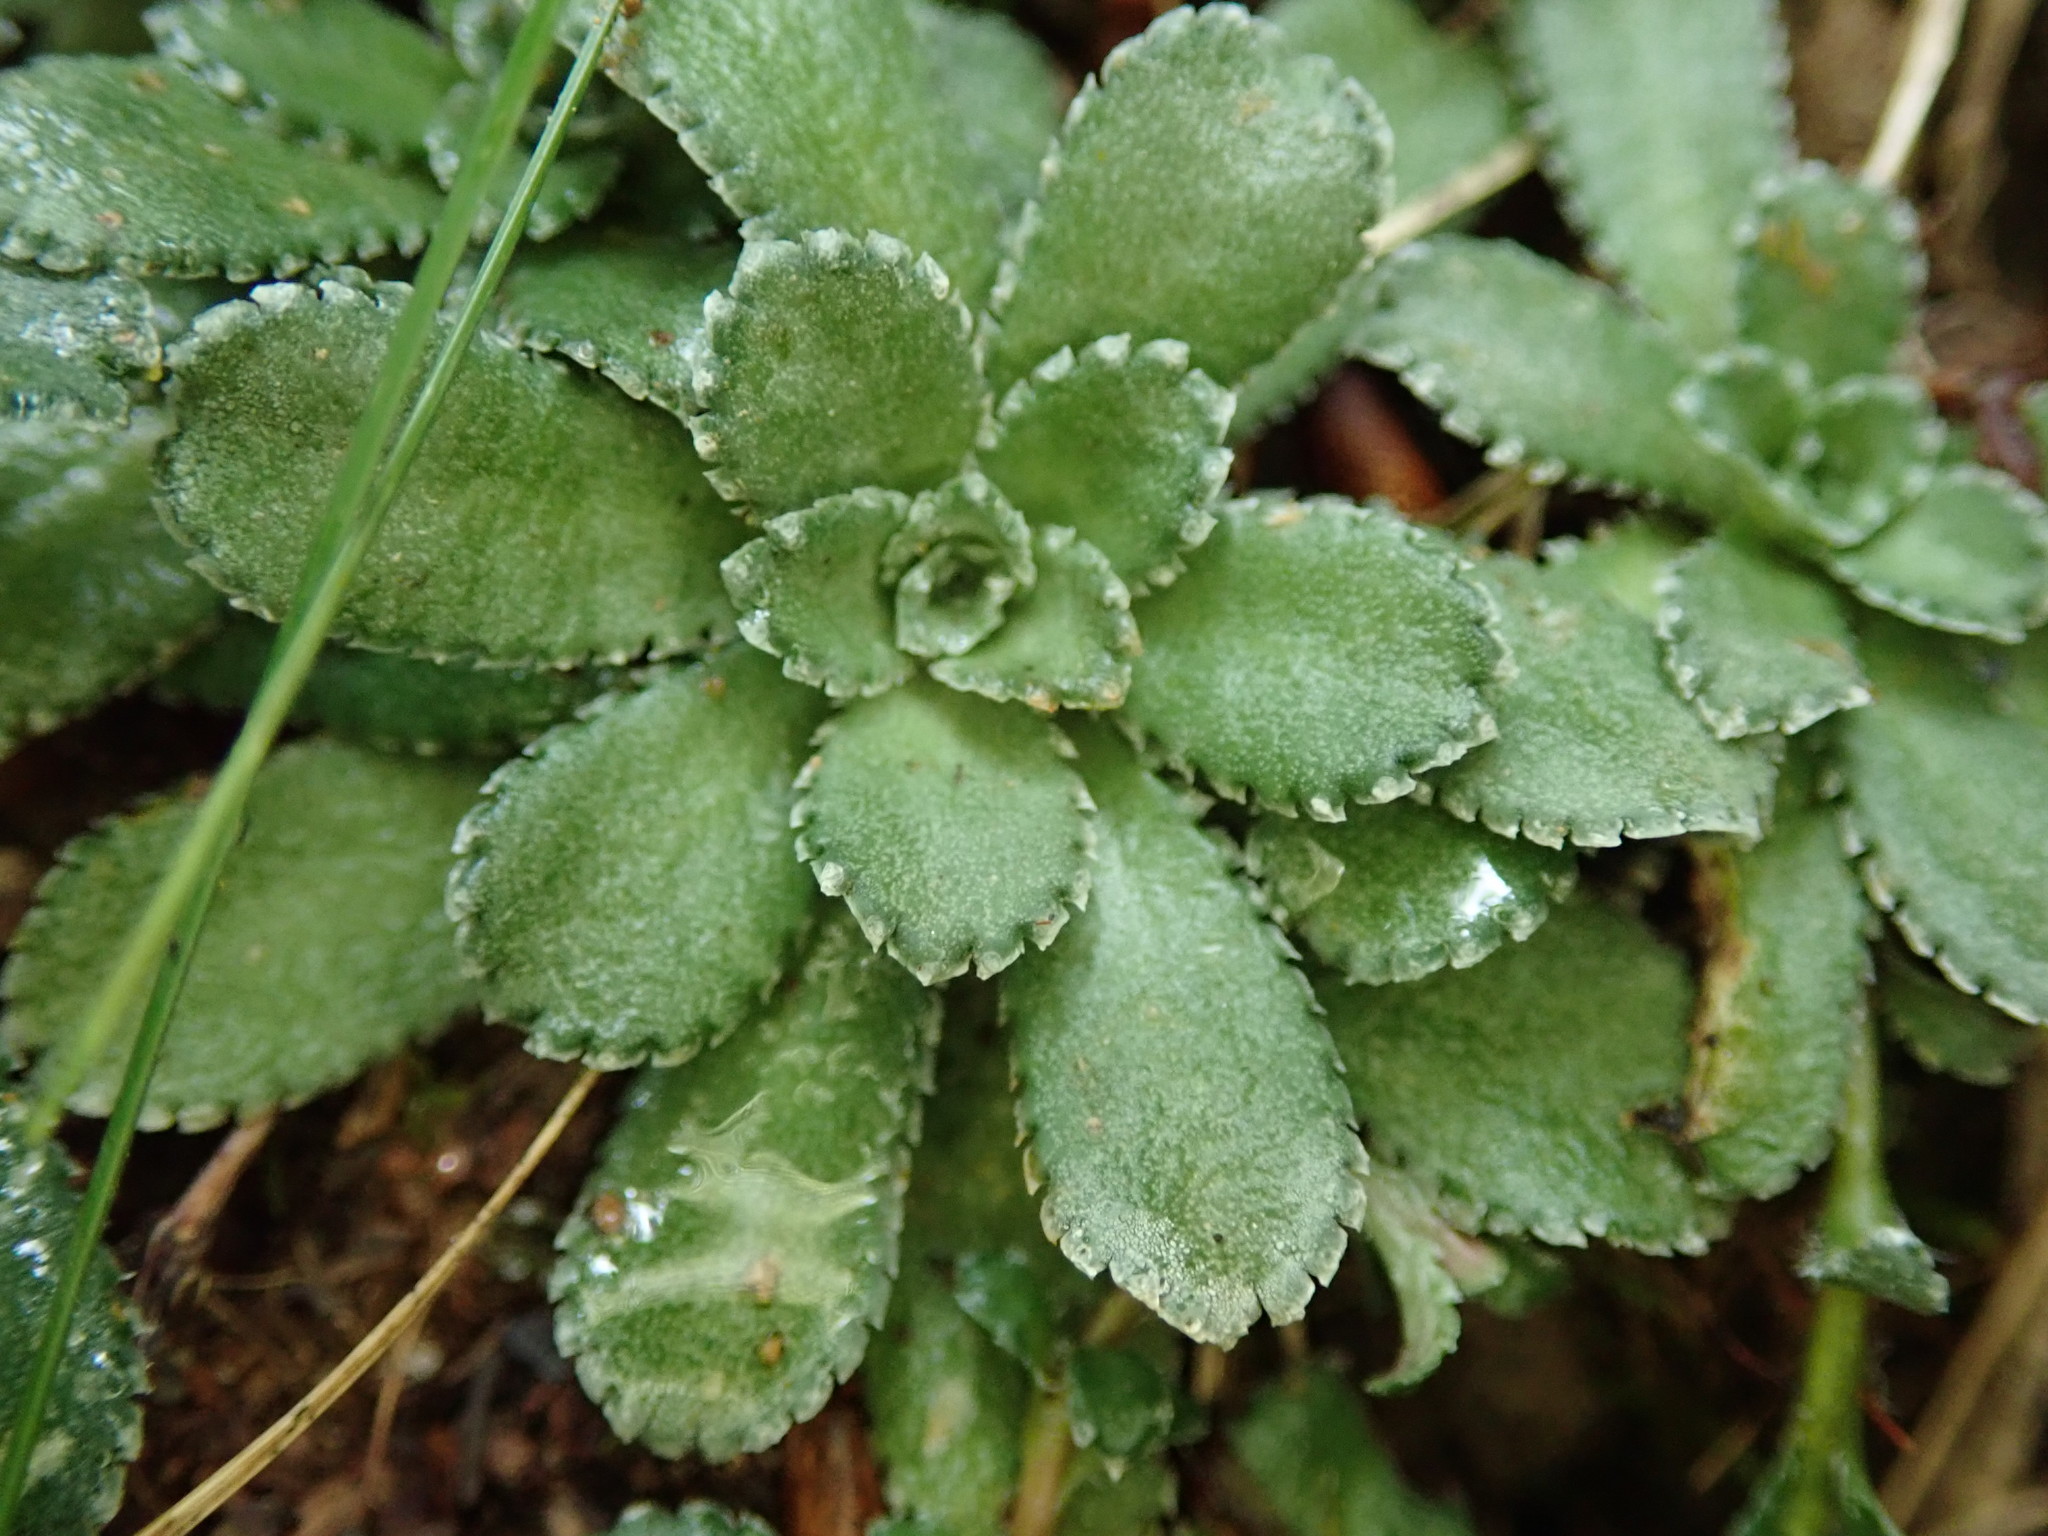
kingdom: Plantae
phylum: Tracheophyta
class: Magnoliopsida
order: Saxifragales
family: Saxifragaceae
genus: Saxifraga
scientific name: Saxifraga paniculata
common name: Livelong saxifrage
